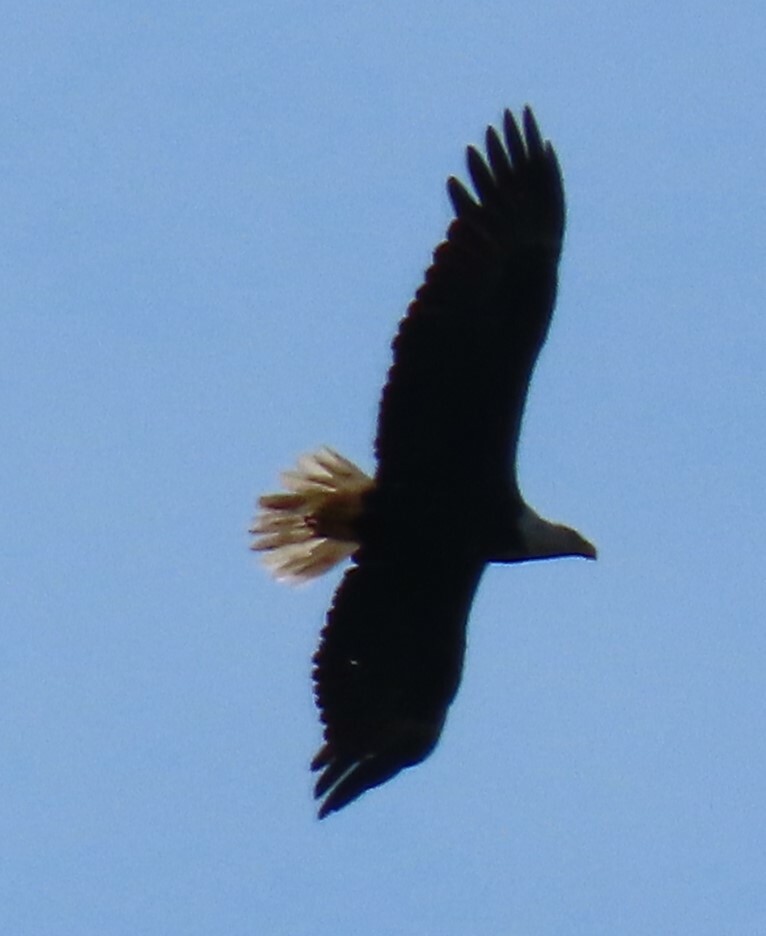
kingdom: Animalia
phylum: Chordata
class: Aves
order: Accipitriformes
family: Accipitridae
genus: Haliaeetus
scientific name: Haliaeetus leucocephalus
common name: Bald eagle
